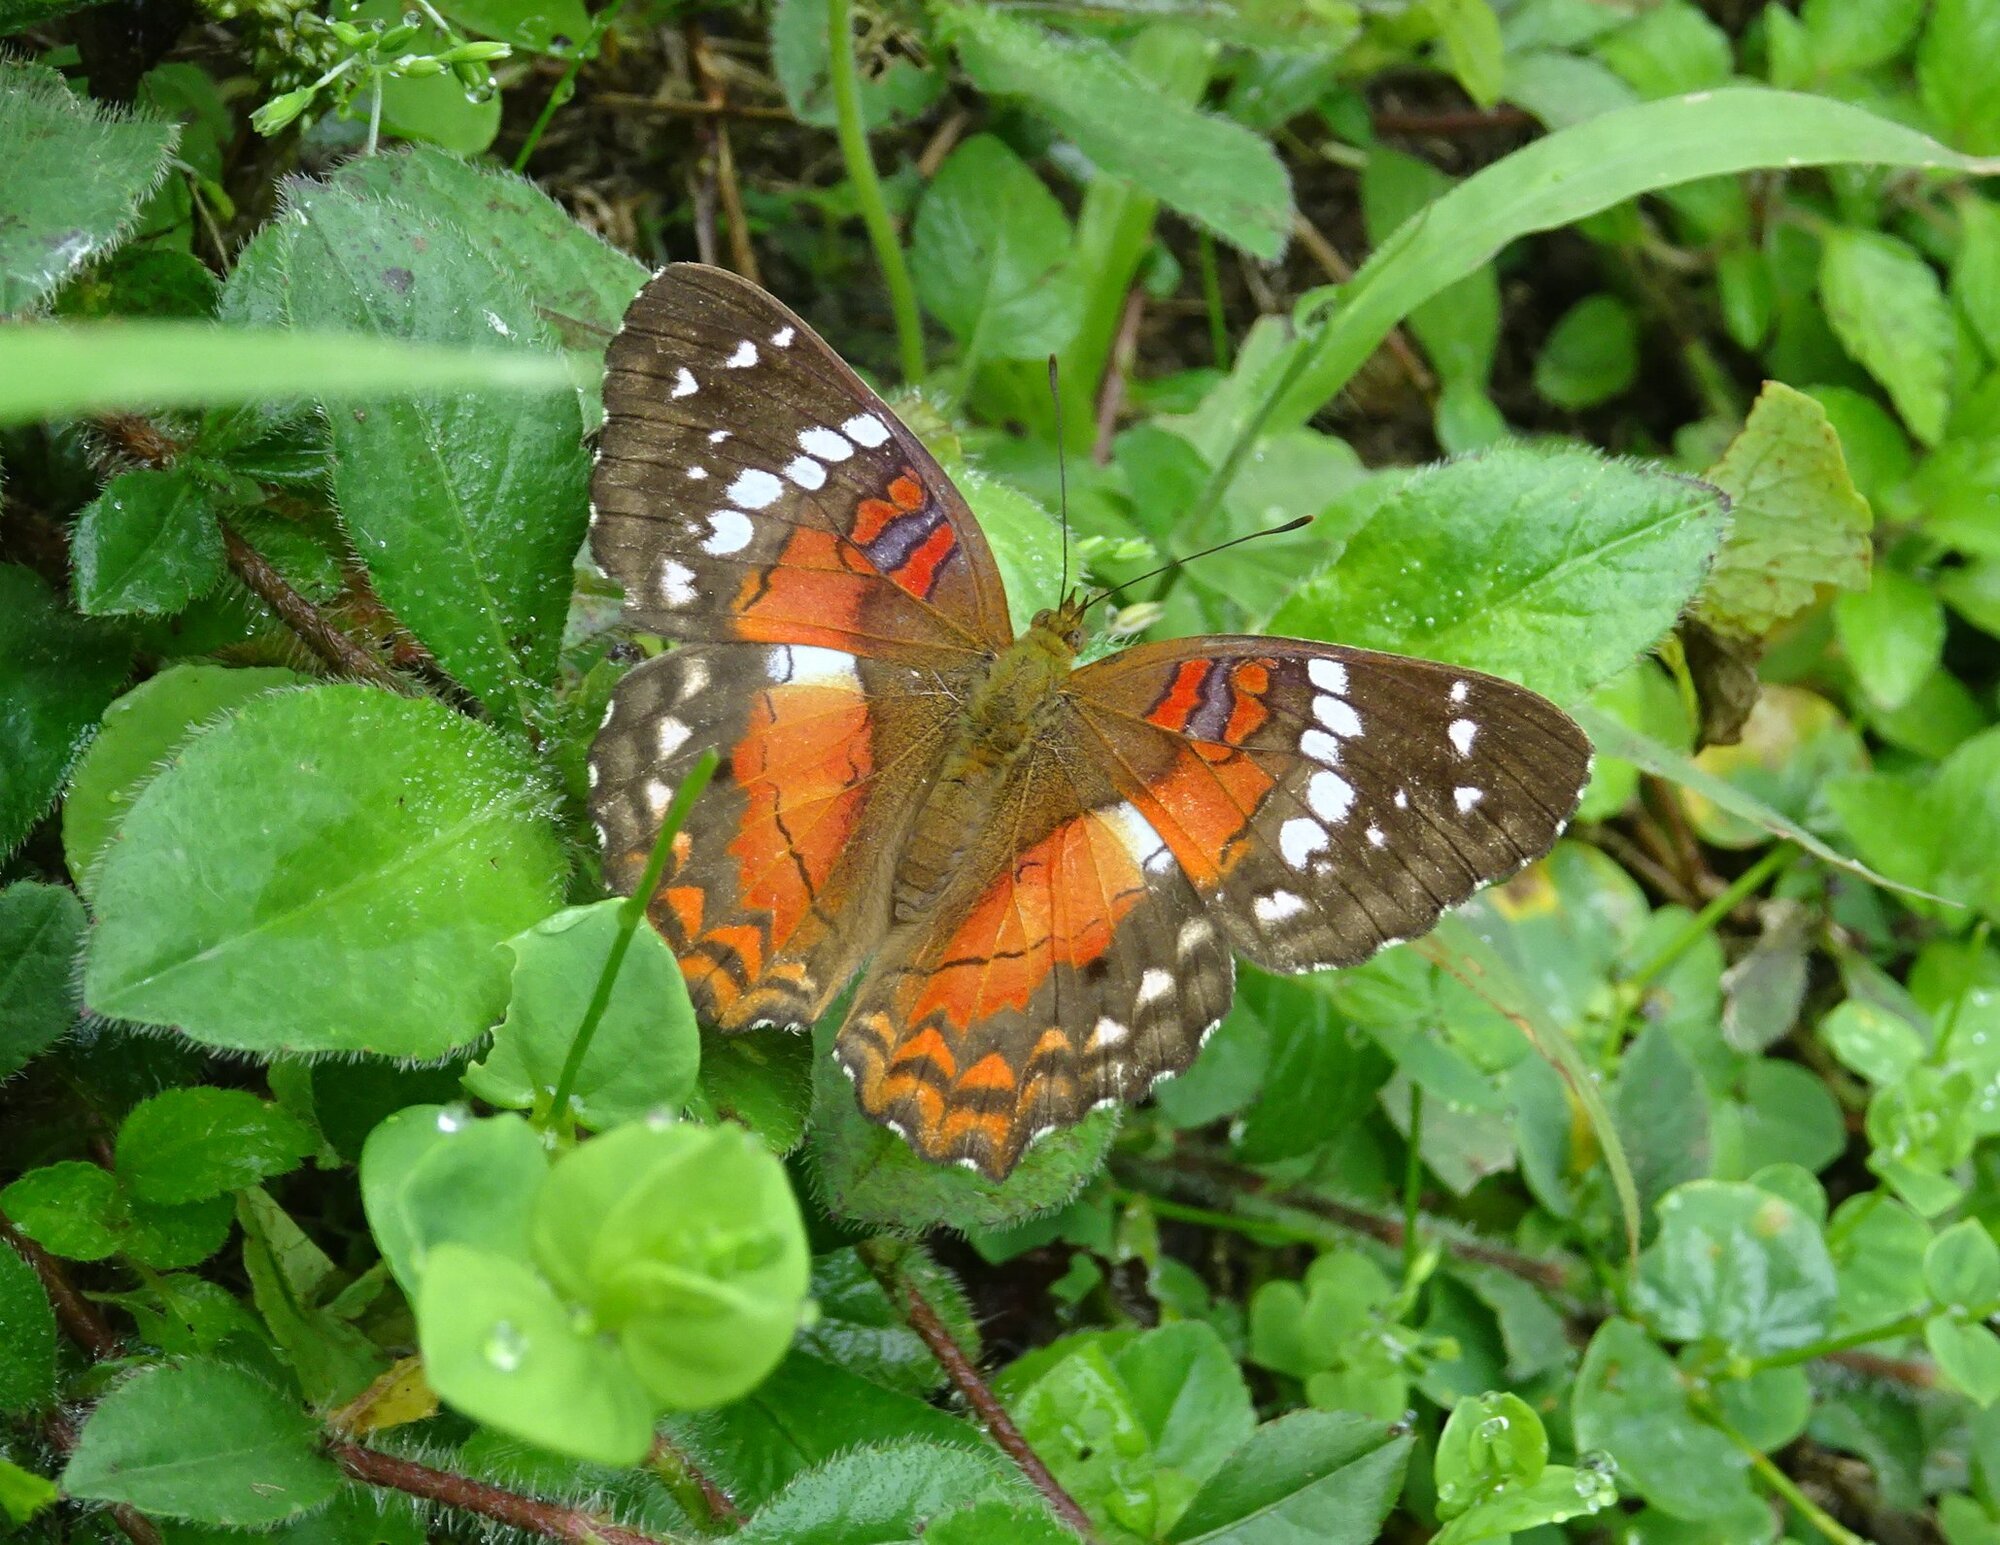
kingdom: Animalia
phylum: Arthropoda
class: Insecta
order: Lepidoptera
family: Nymphalidae
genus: Anartia
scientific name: Anartia amathea
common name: Red peacock
